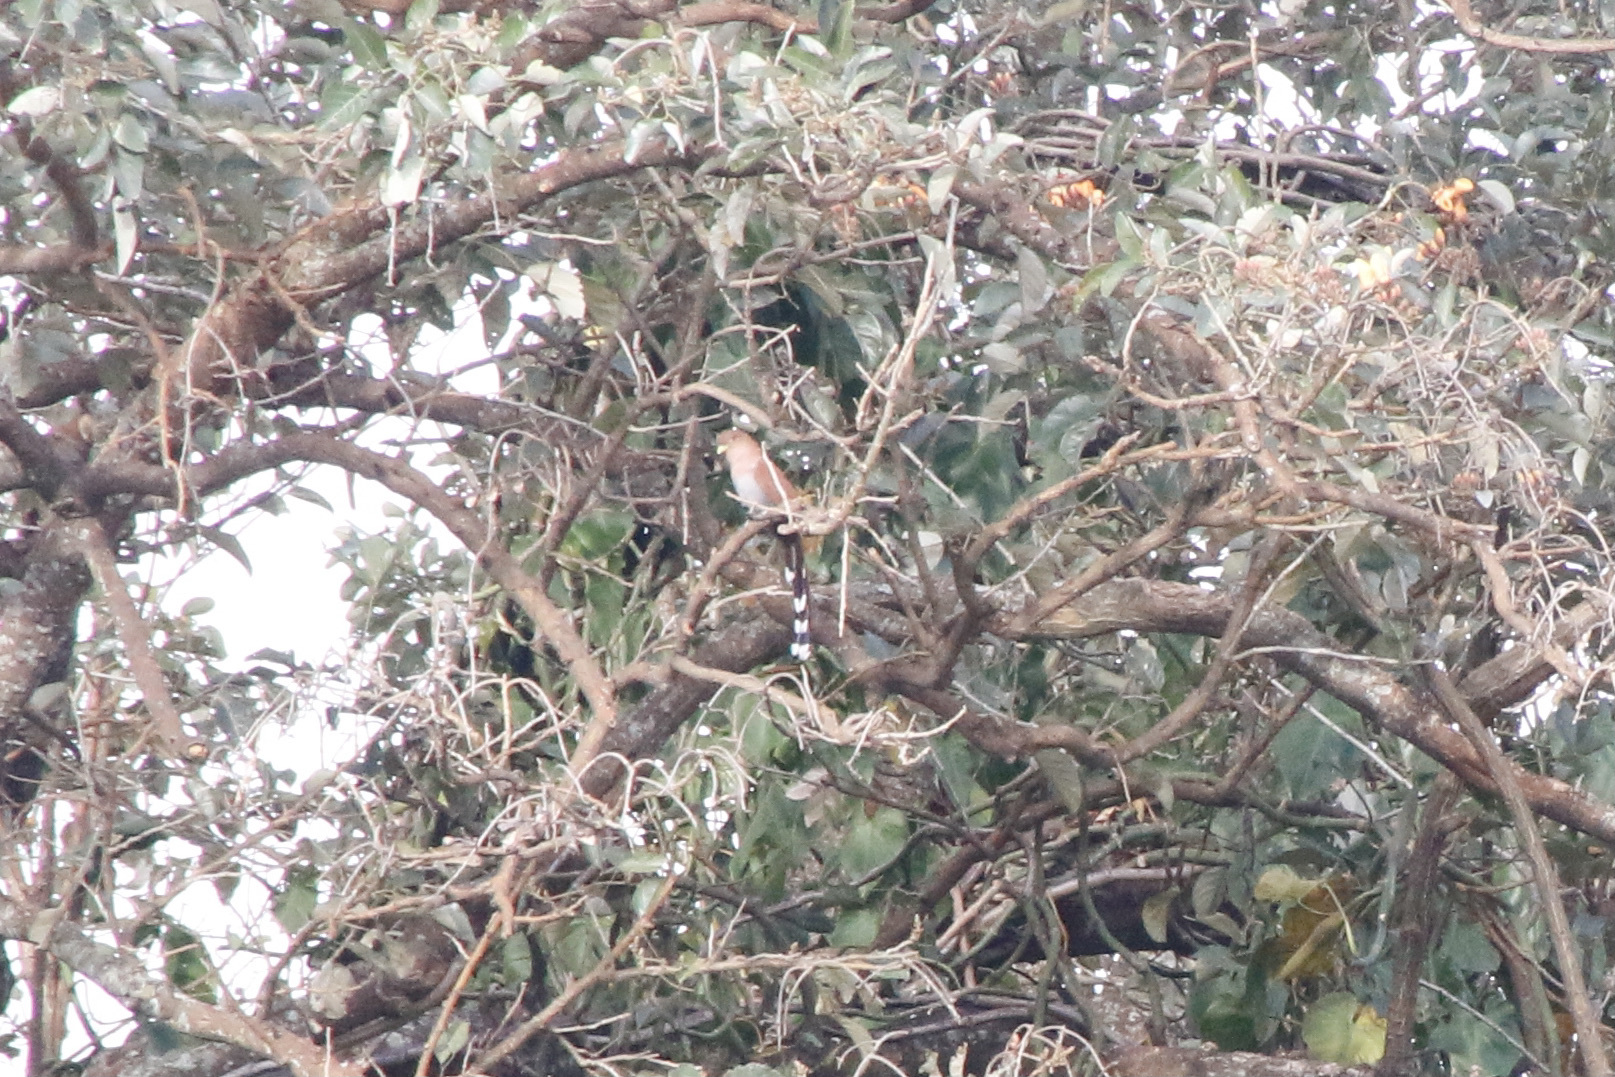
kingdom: Animalia
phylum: Chordata
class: Aves
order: Cuculiformes
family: Cuculidae
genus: Piaya
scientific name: Piaya cayana
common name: Squirrel cuckoo
